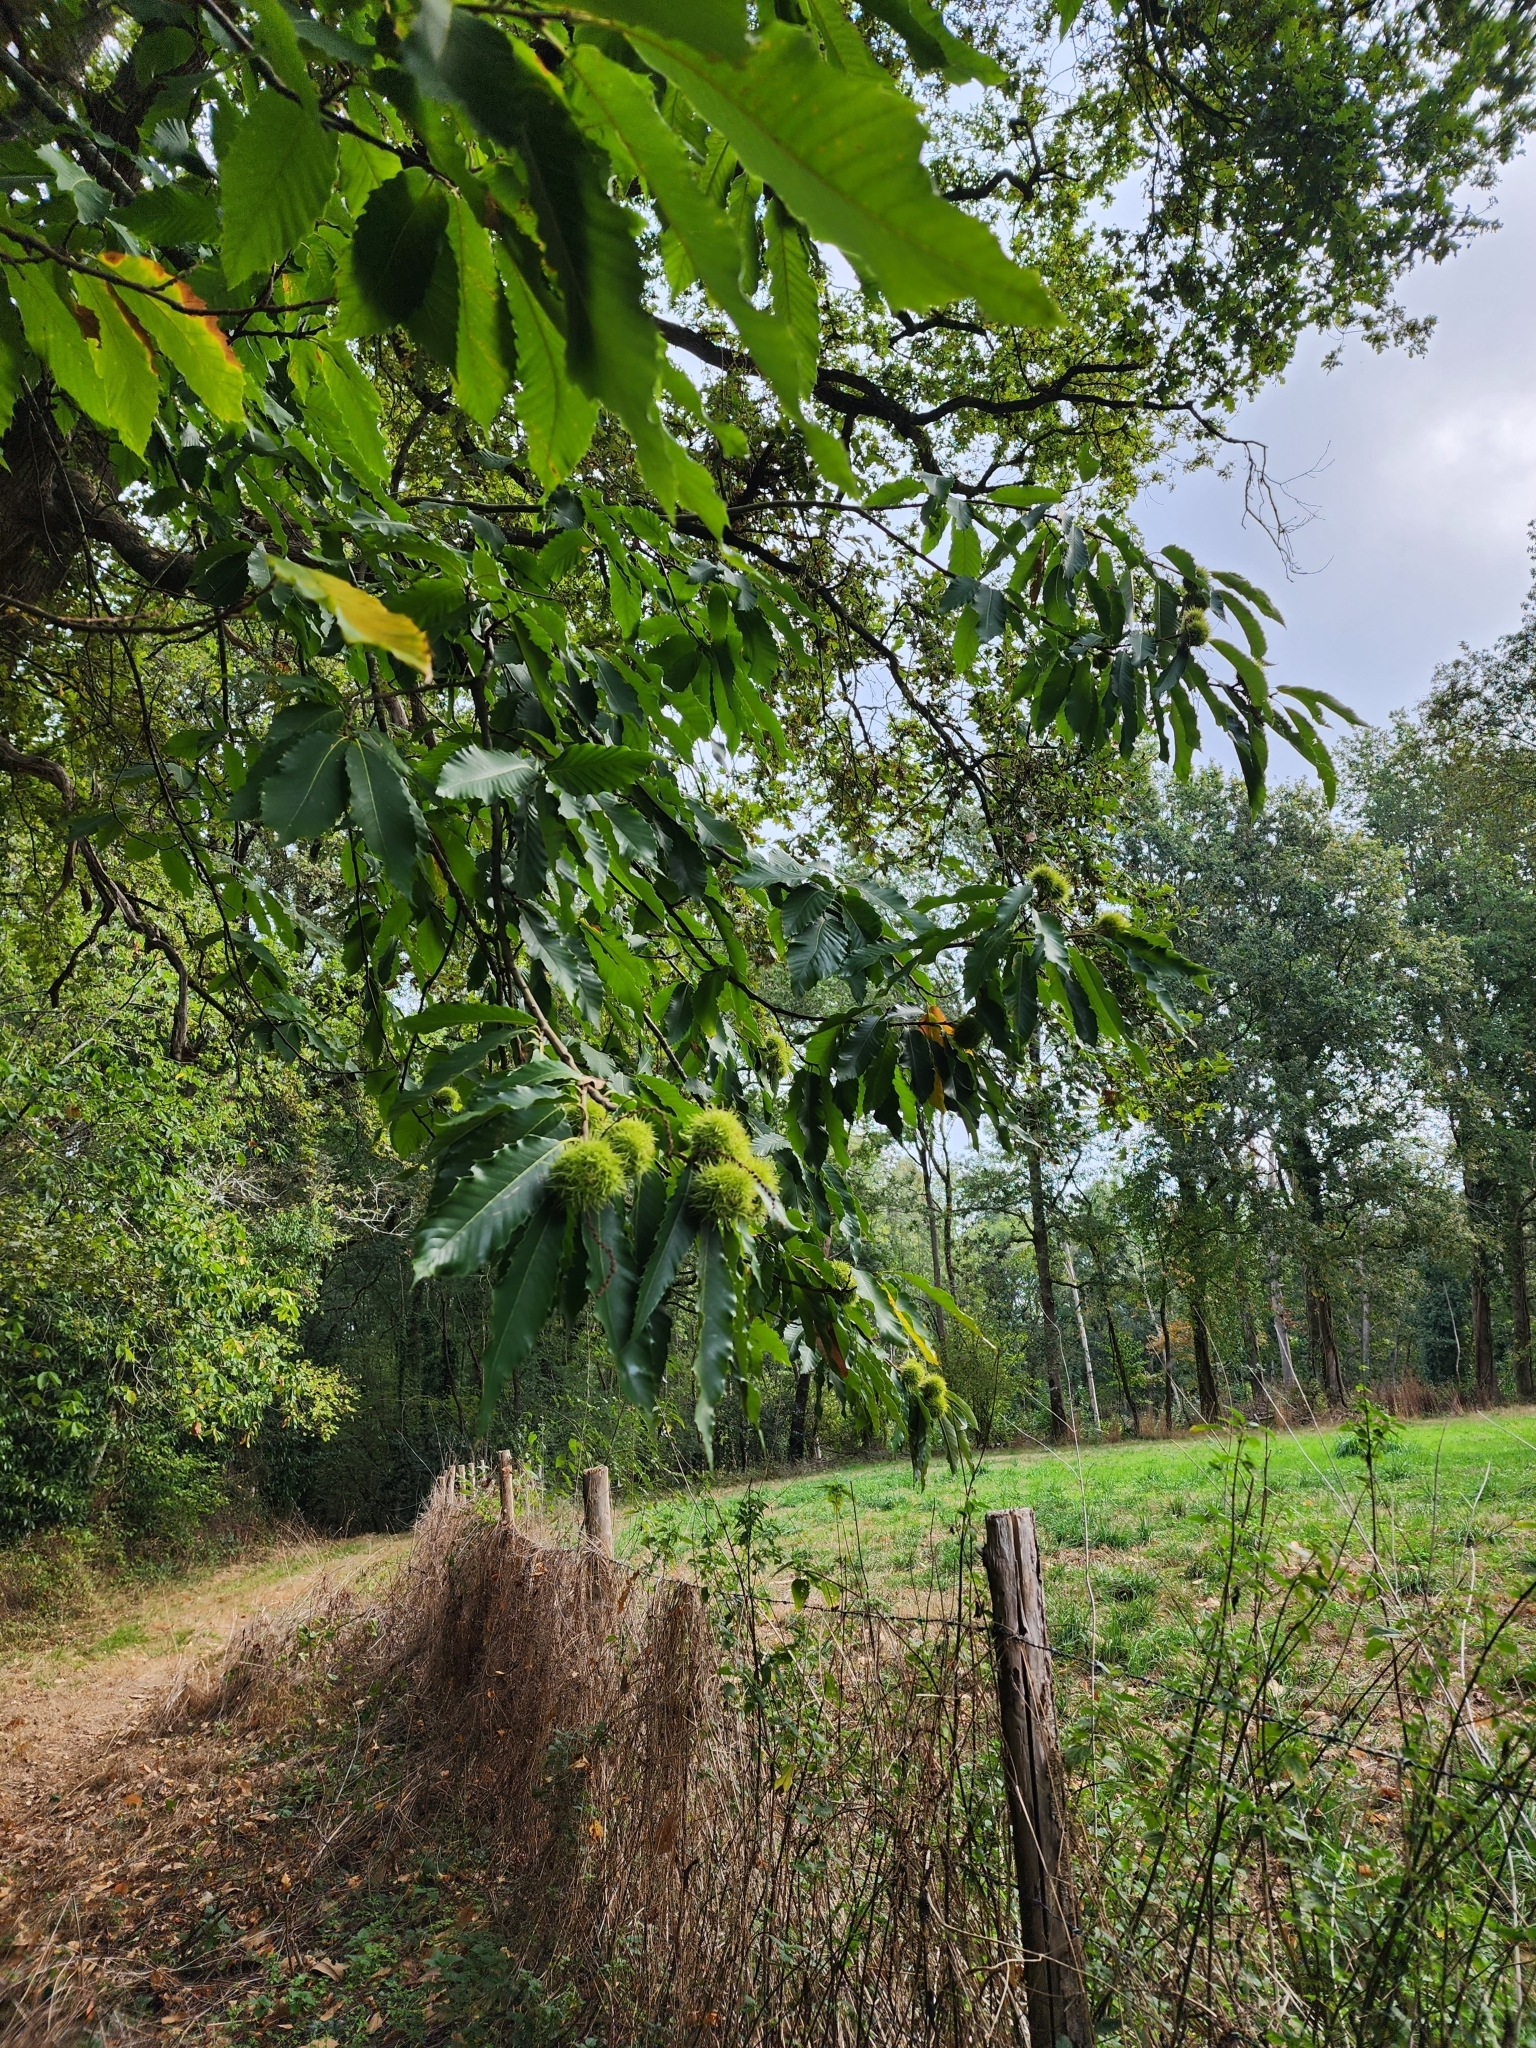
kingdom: Plantae
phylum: Tracheophyta
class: Magnoliopsida
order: Fagales
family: Fagaceae
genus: Castanea
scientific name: Castanea sativa
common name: Sweet chestnut
